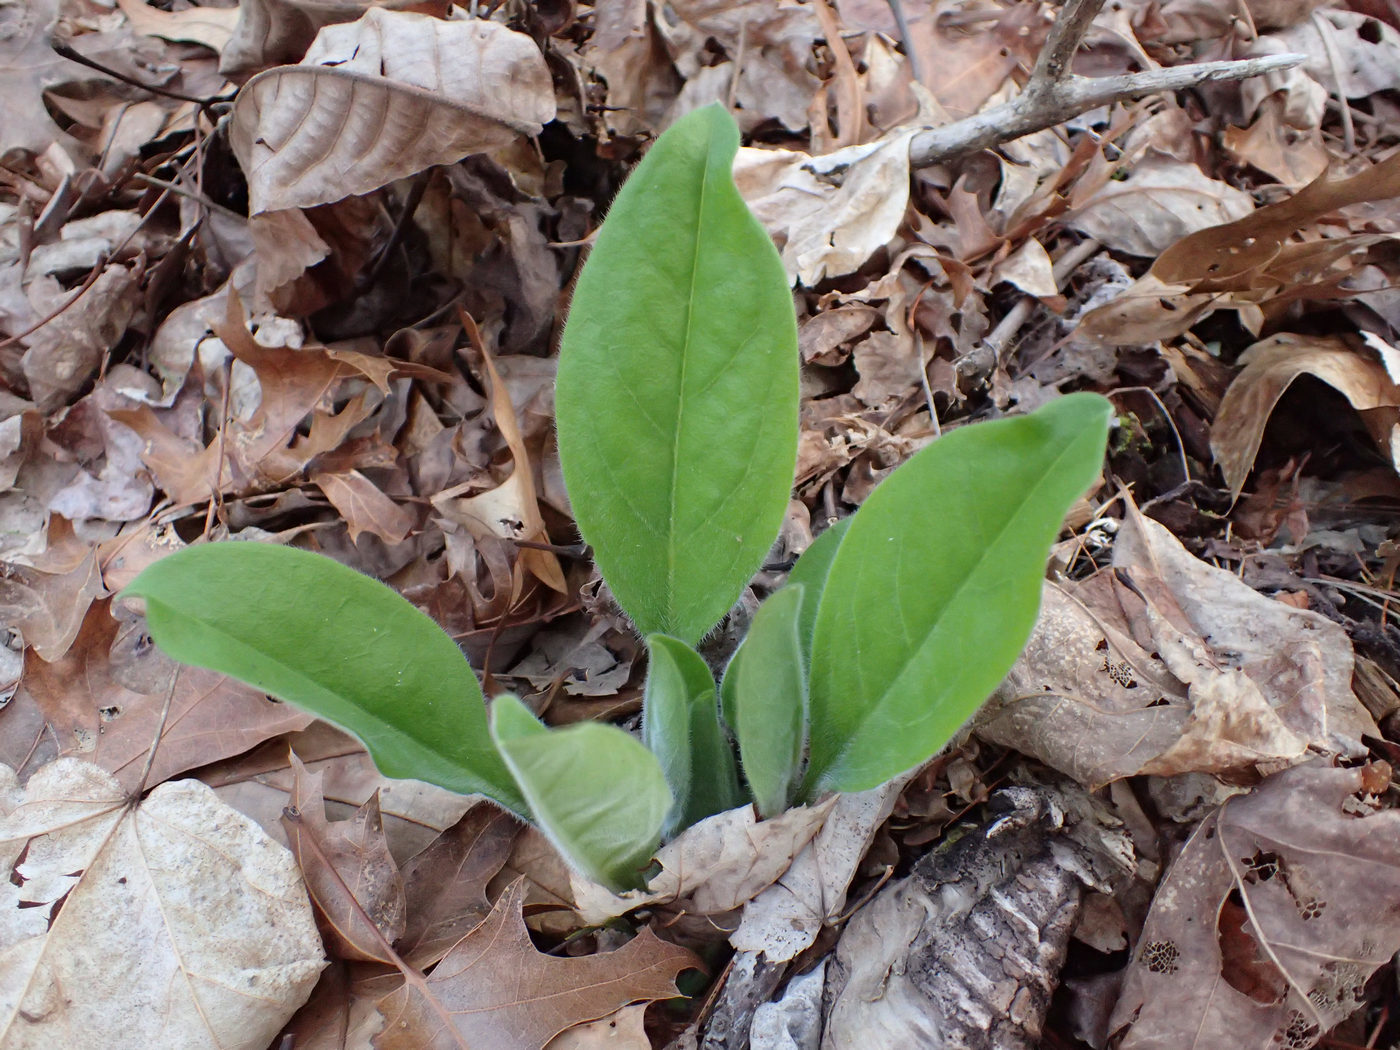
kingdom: Plantae
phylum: Tracheophyta
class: Magnoliopsida
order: Boraginales
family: Boraginaceae
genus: Andersonglossum
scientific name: Andersonglossum virginianum
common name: Wild comfrey
